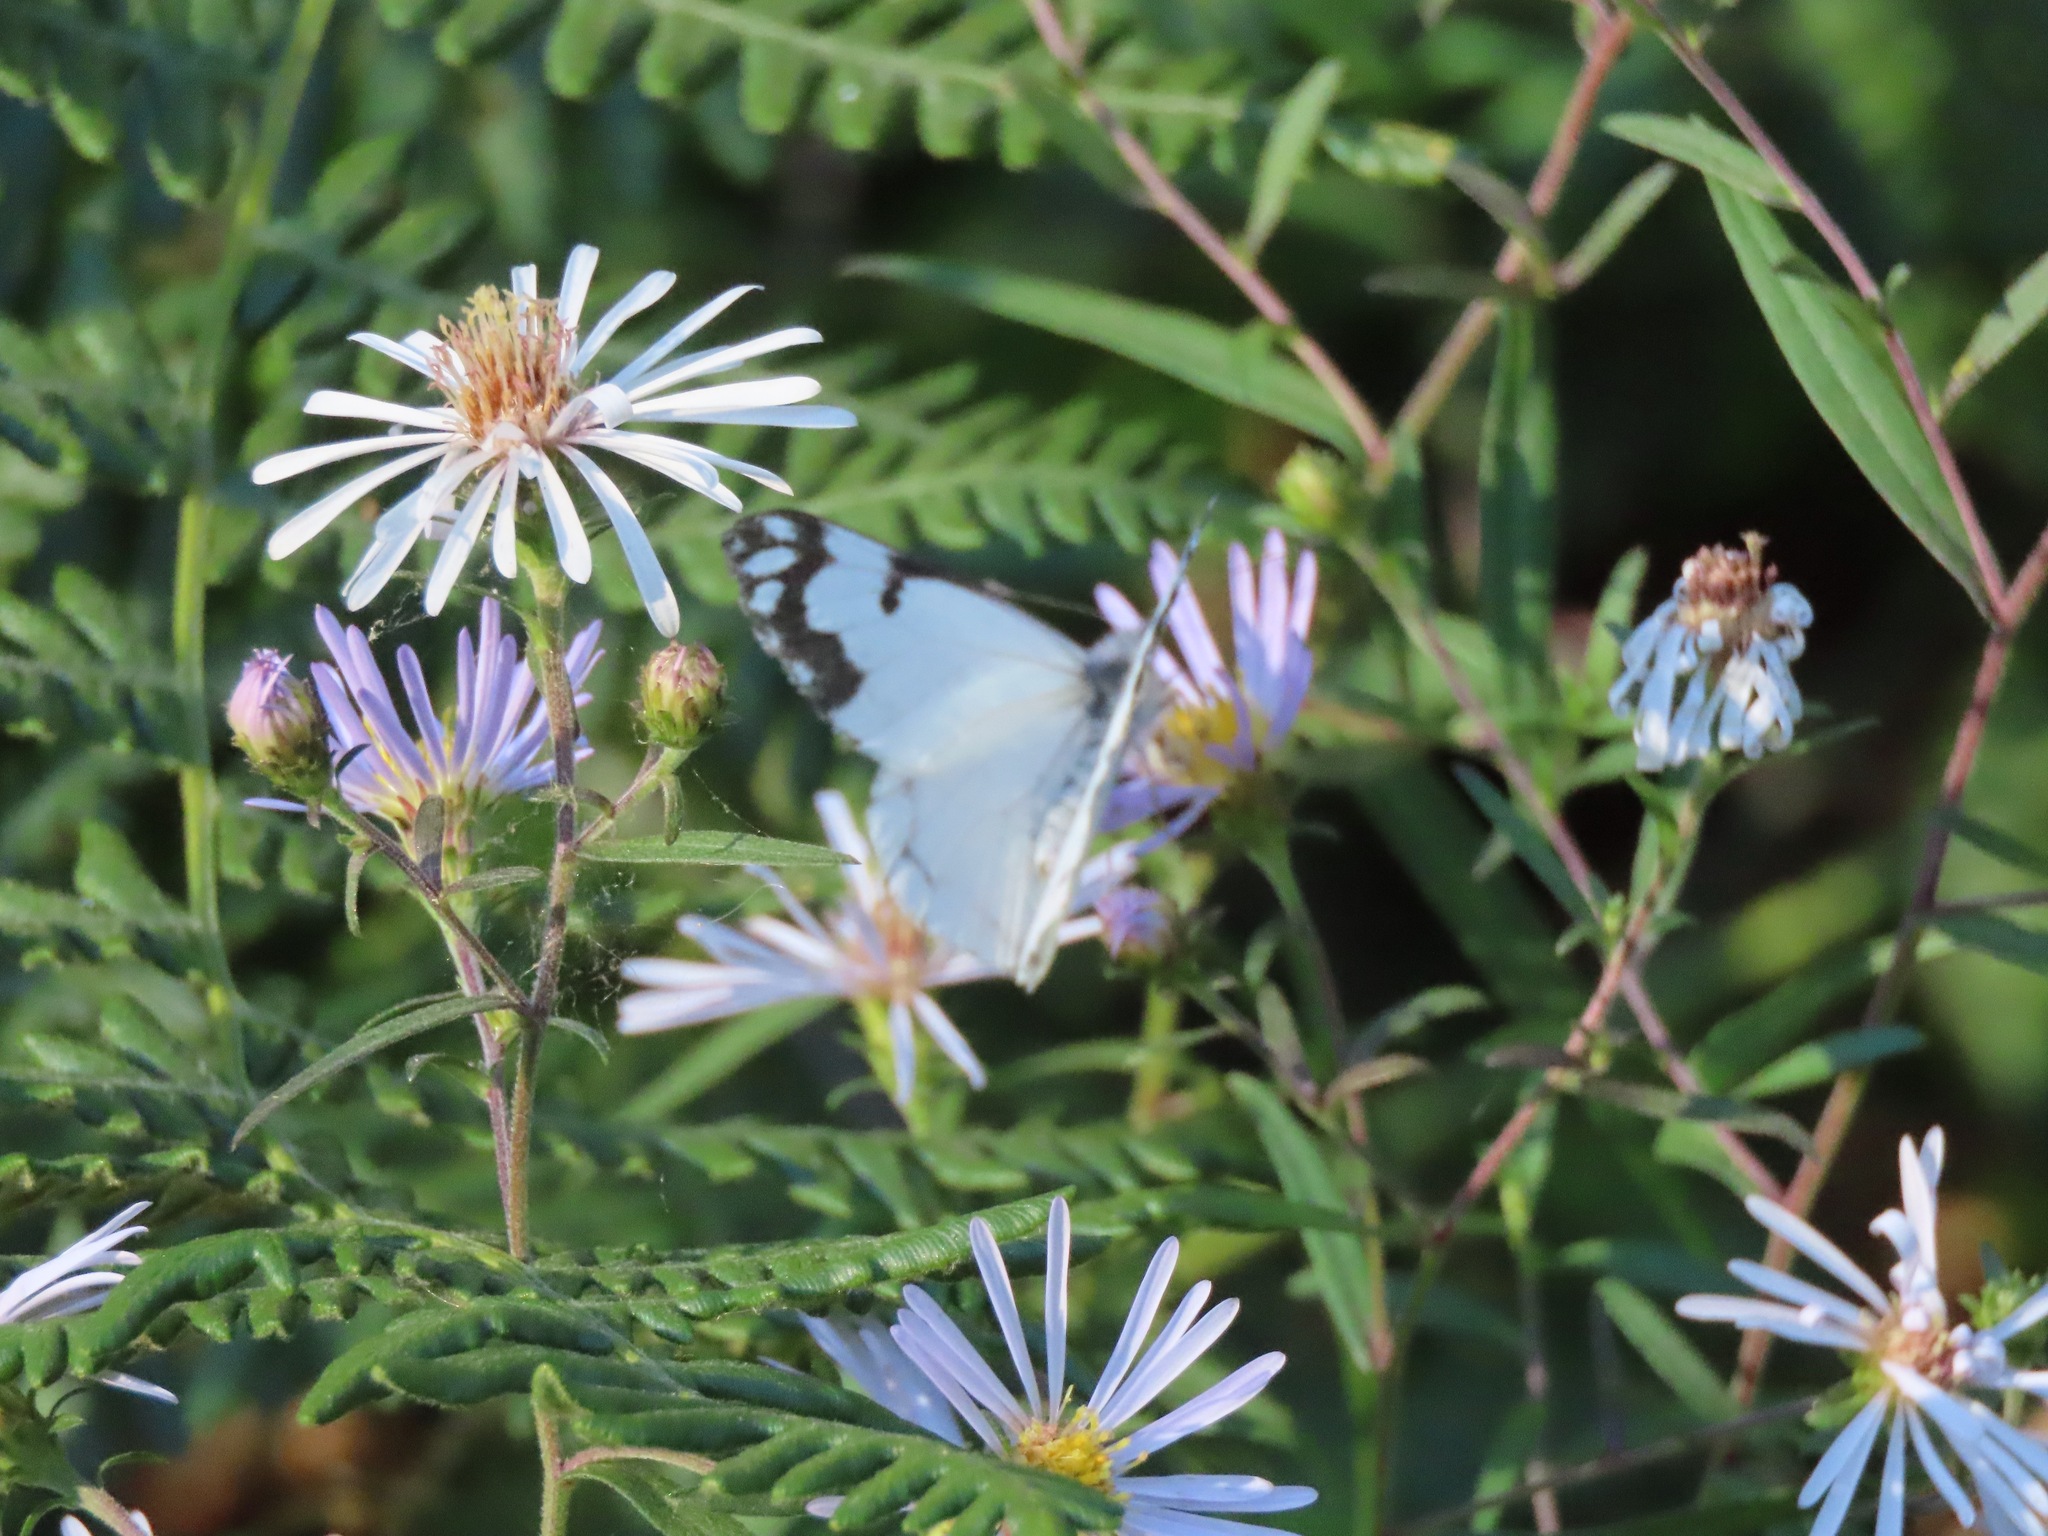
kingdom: Animalia
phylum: Arthropoda
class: Insecta
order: Lepidoptera
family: Pieridae
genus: Neophasia
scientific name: Neophasia menapia
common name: Pine white
